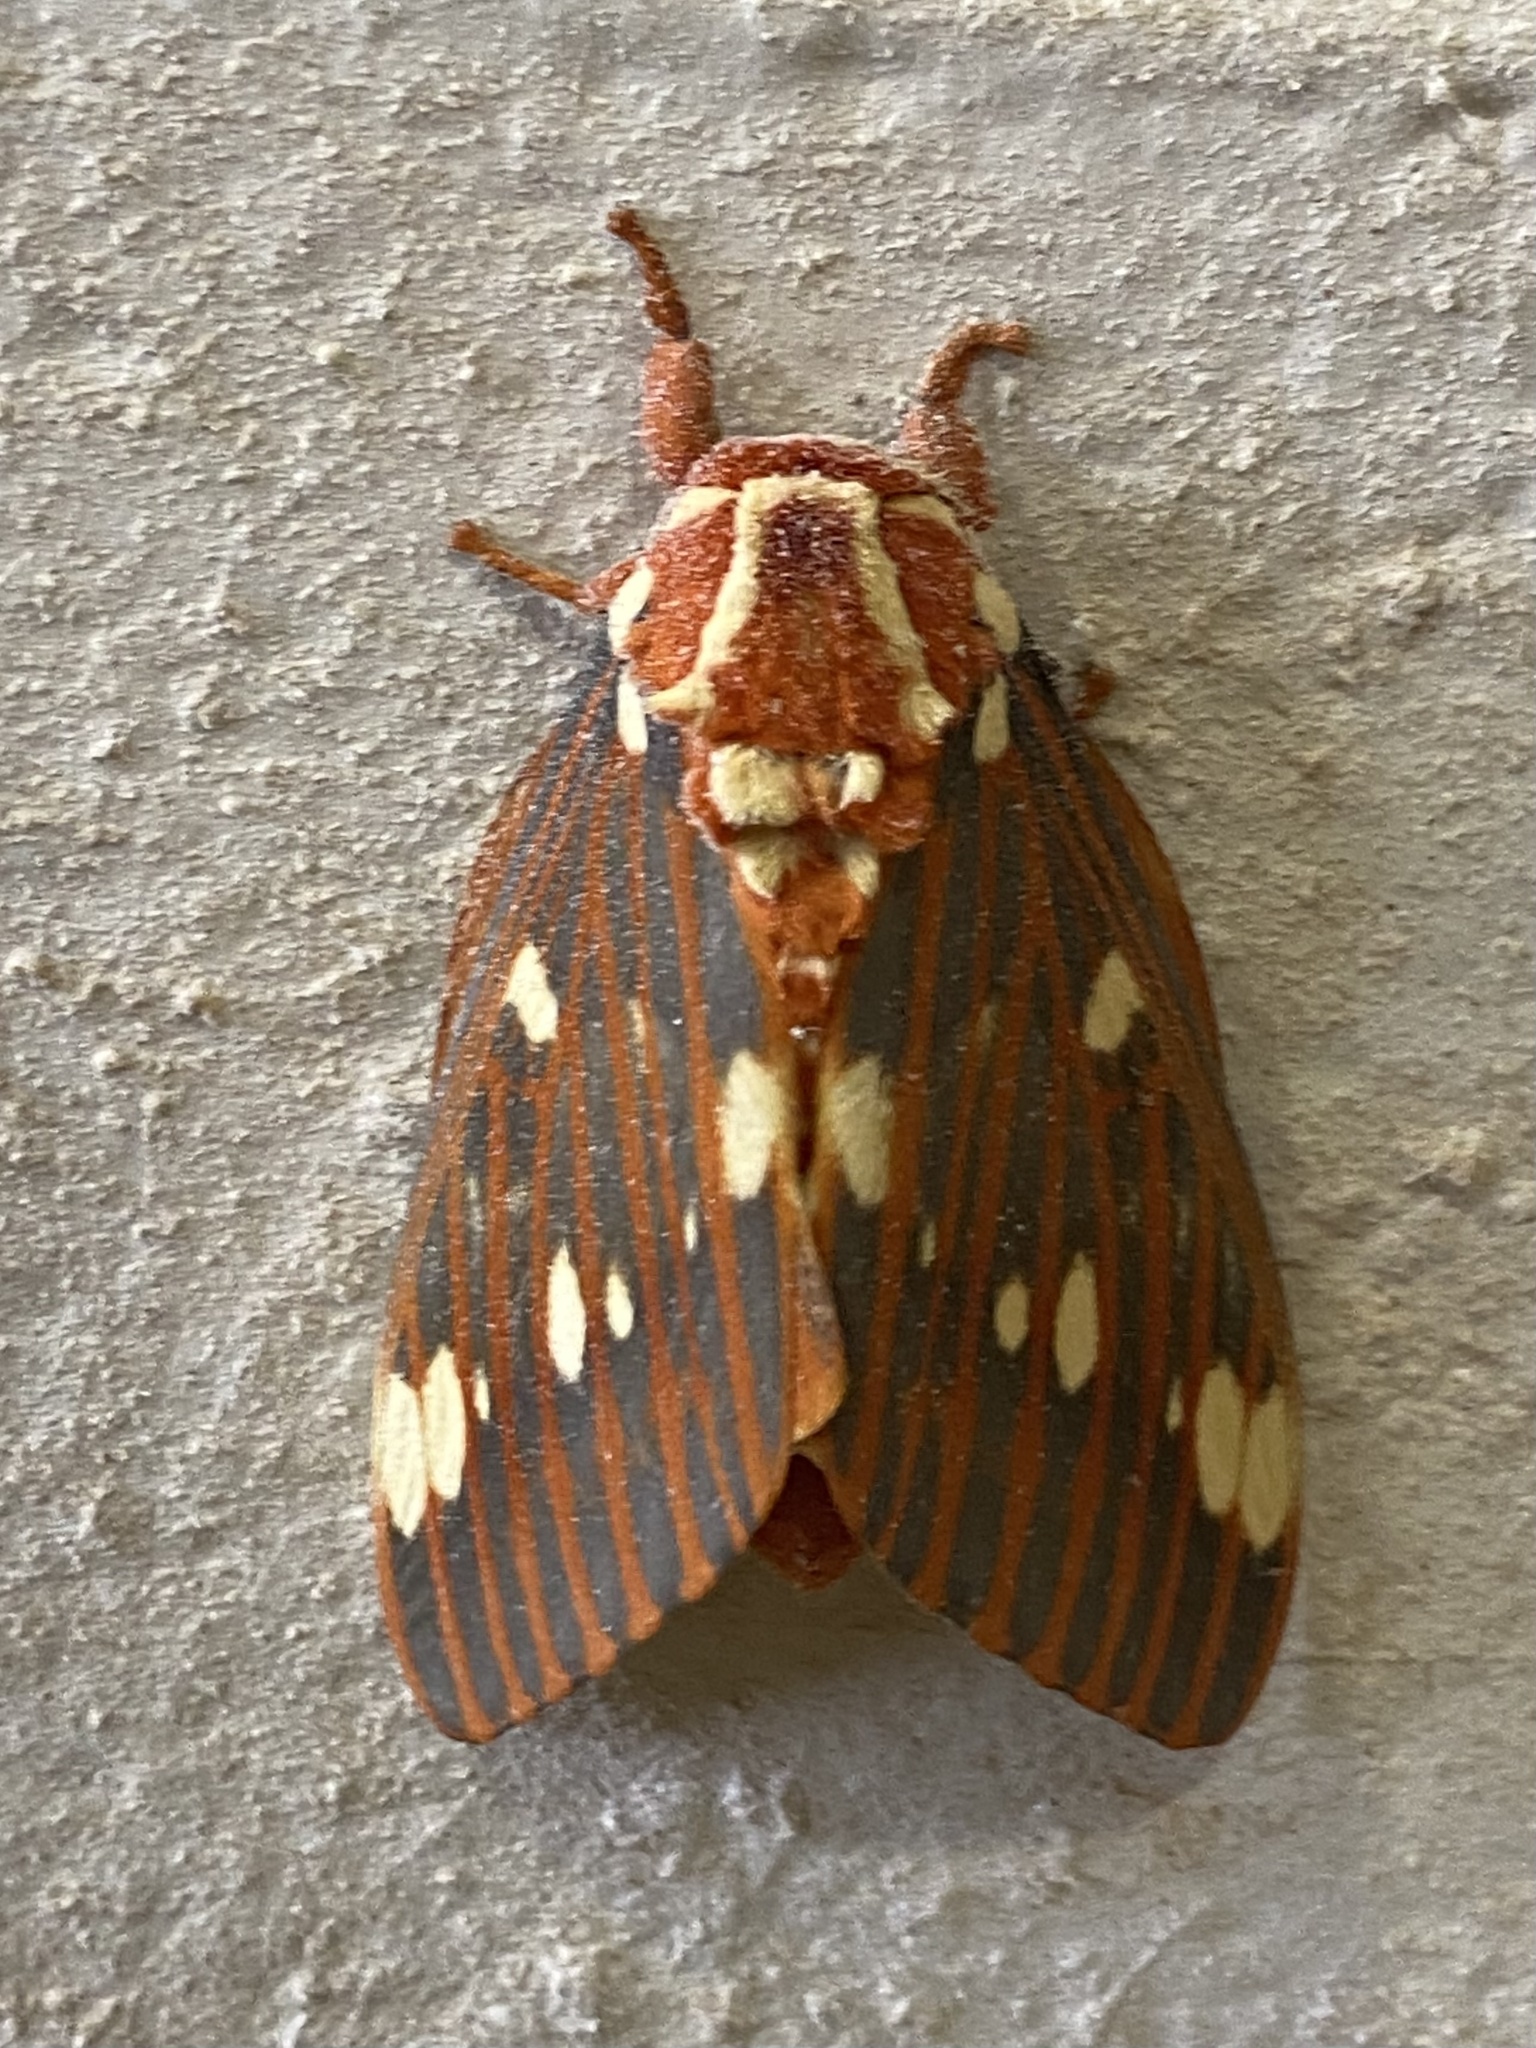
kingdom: Animalia
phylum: Arthropoda
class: Insecta
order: Lepidoptera
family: Saturniidae
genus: Citheronia
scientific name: Citheronia regalis
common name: Hickory horned devil
